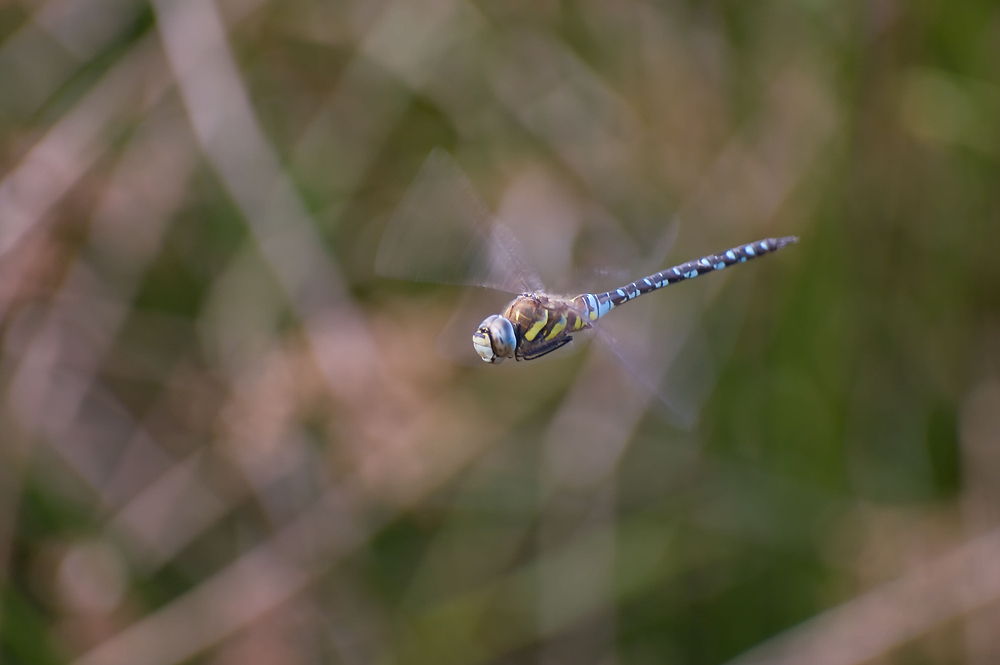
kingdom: Animalia
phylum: Arthropoda
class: Insecta
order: Odonata
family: Aeshnidae
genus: Aeshna
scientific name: Aeshna mixta
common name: Migrant hawker
